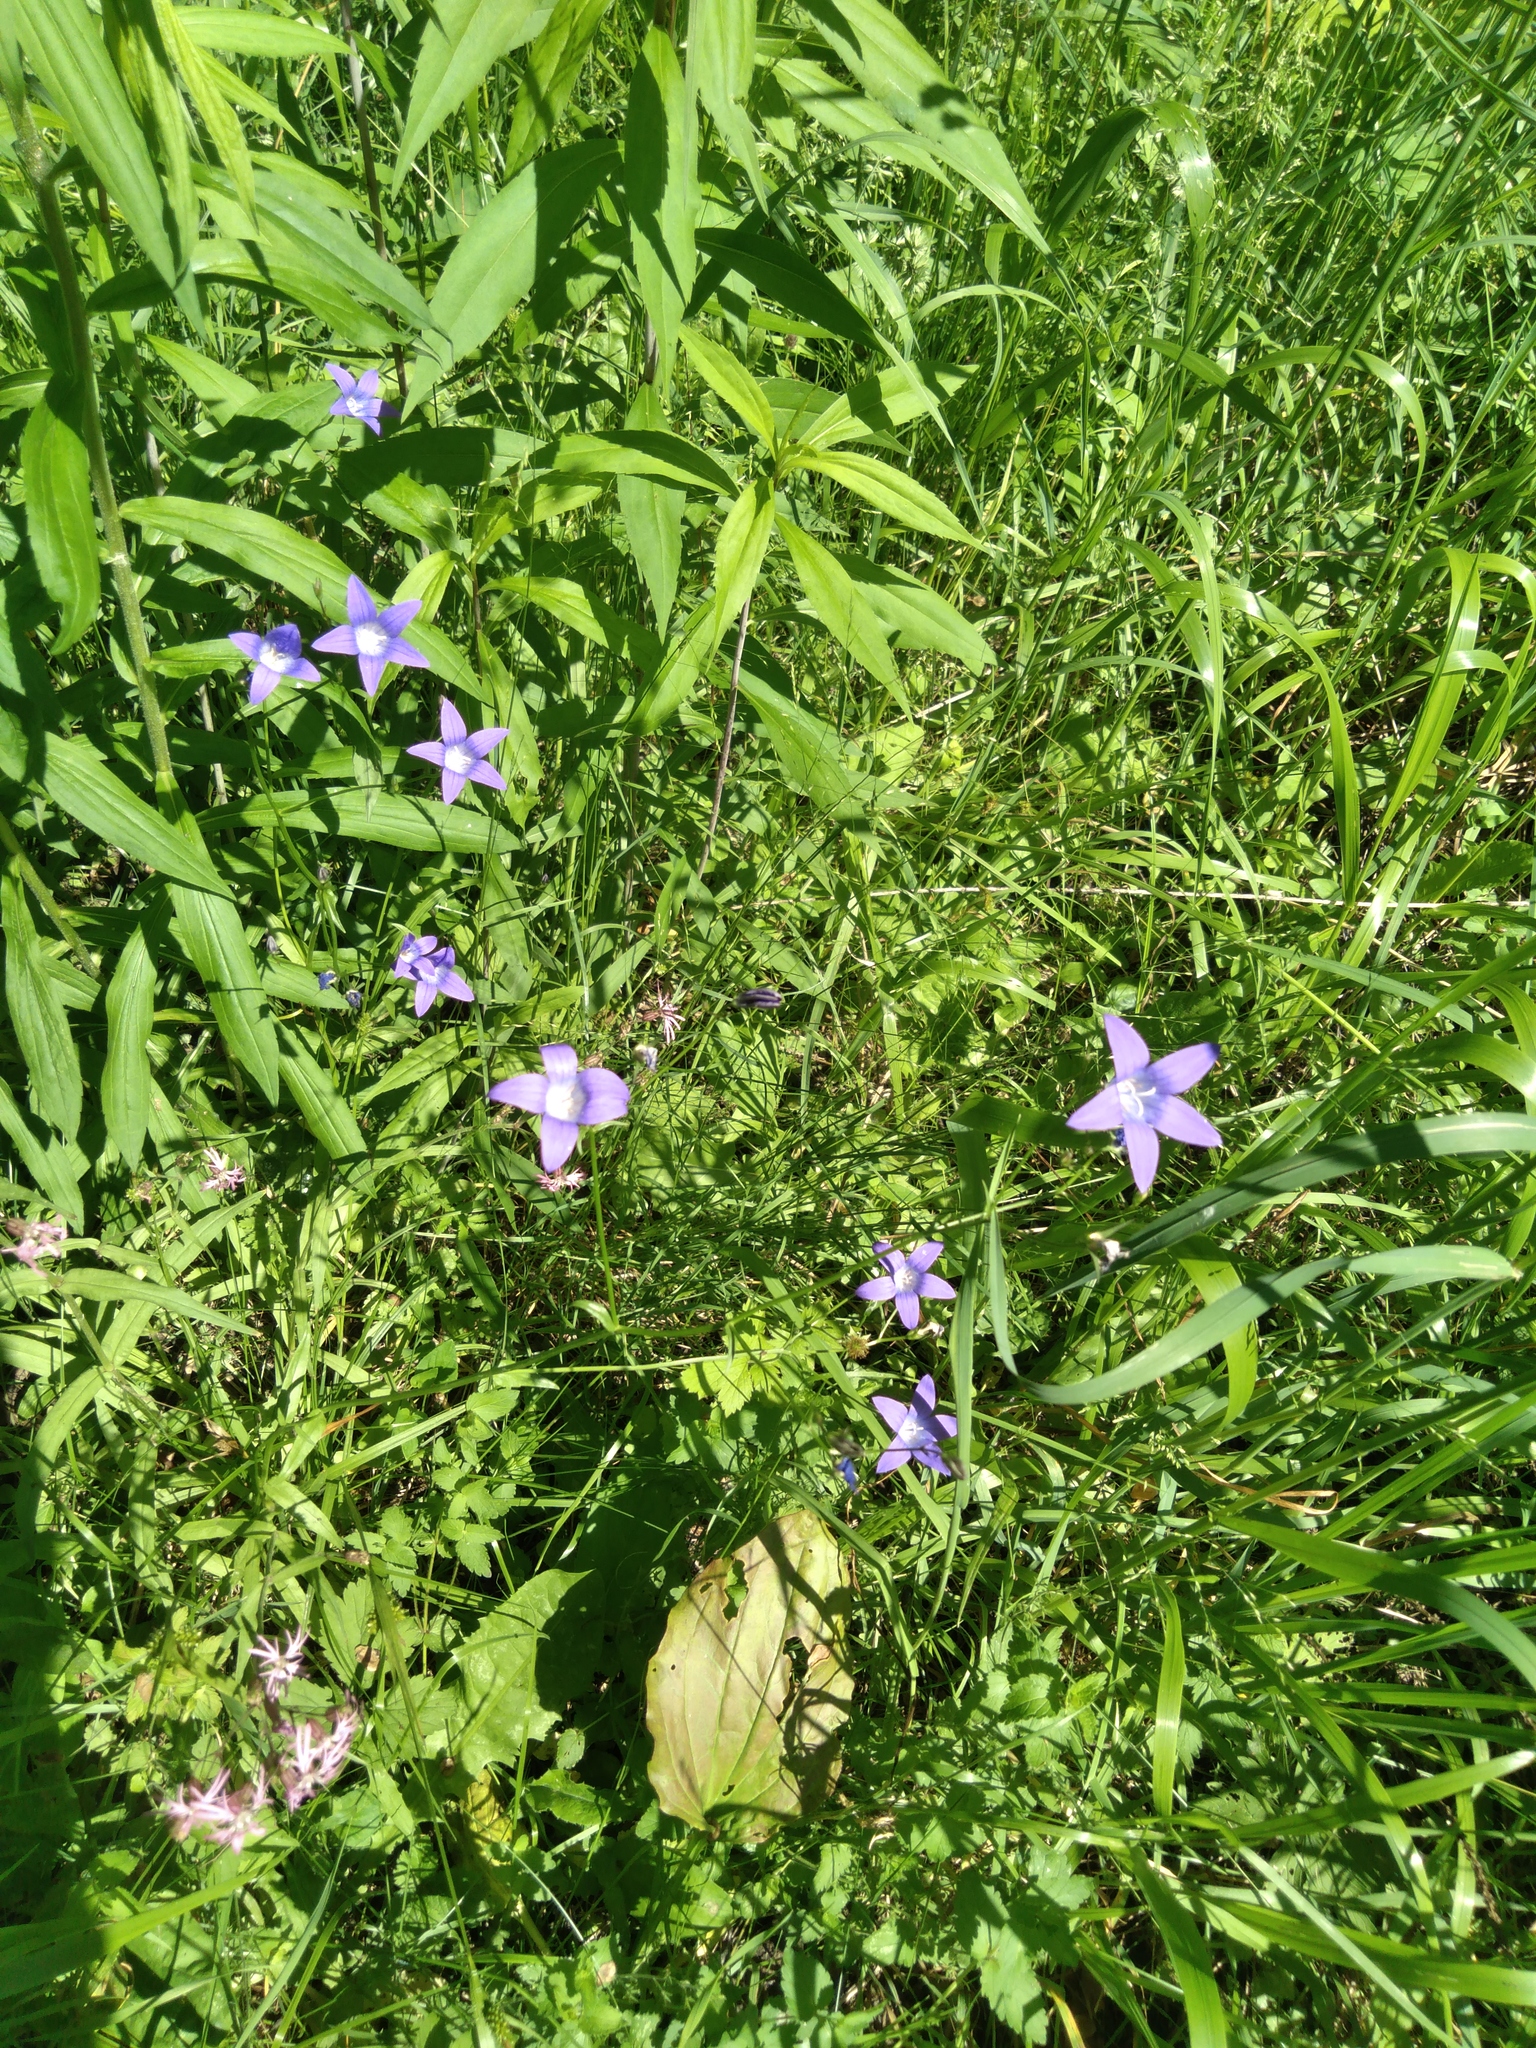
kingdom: Plantae
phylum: Tracheophyta
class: Magnoliopsida
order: Asterales
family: Campanulaceae
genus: Campanula
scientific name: Campanula patula
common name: Spreading bellflower
